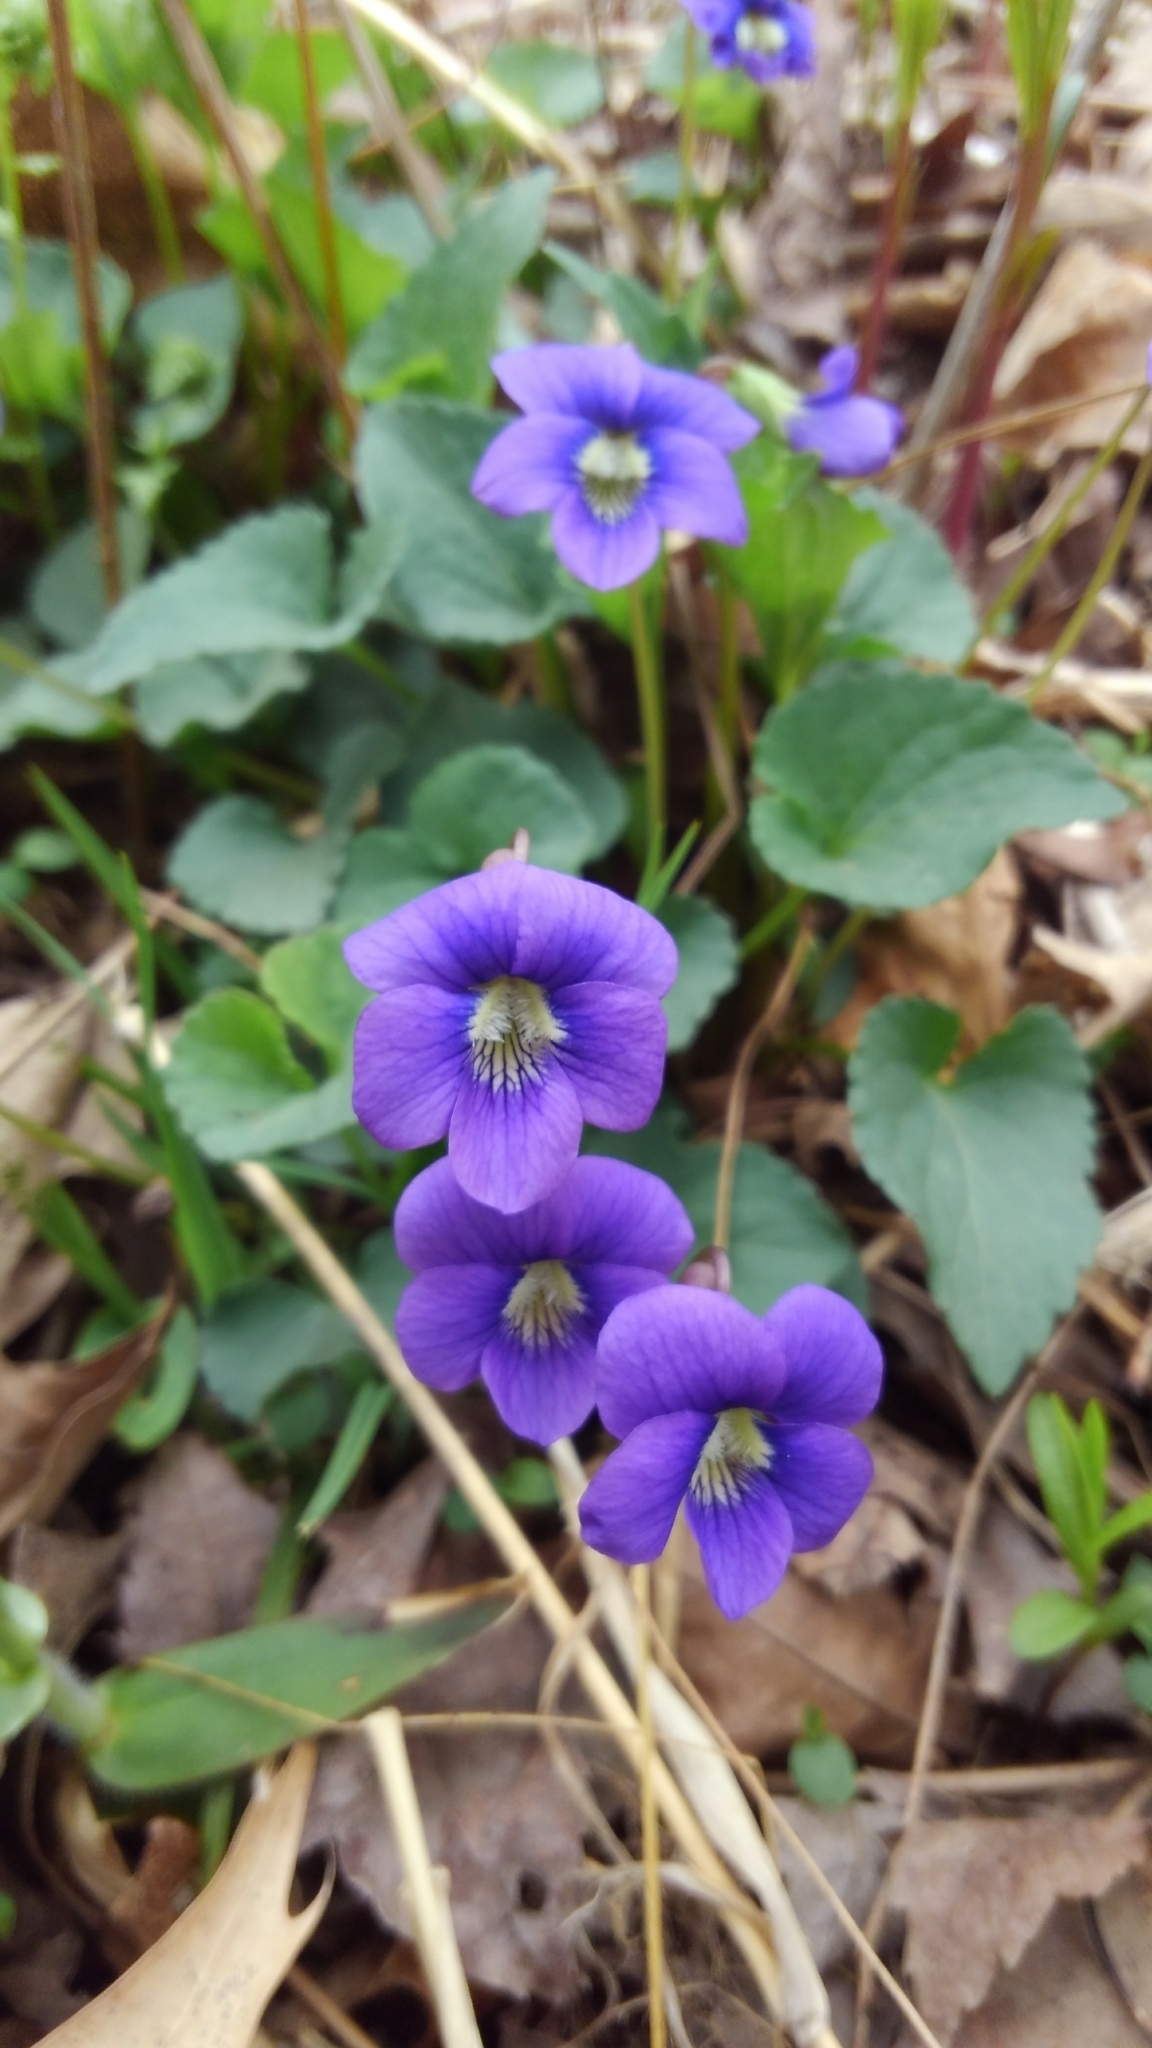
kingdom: Plantae
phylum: Tracheophyta
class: Magnoliopsida
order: Malpighiales
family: Violaceae
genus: Viola
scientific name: Viola sororia
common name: Dooryard violet
